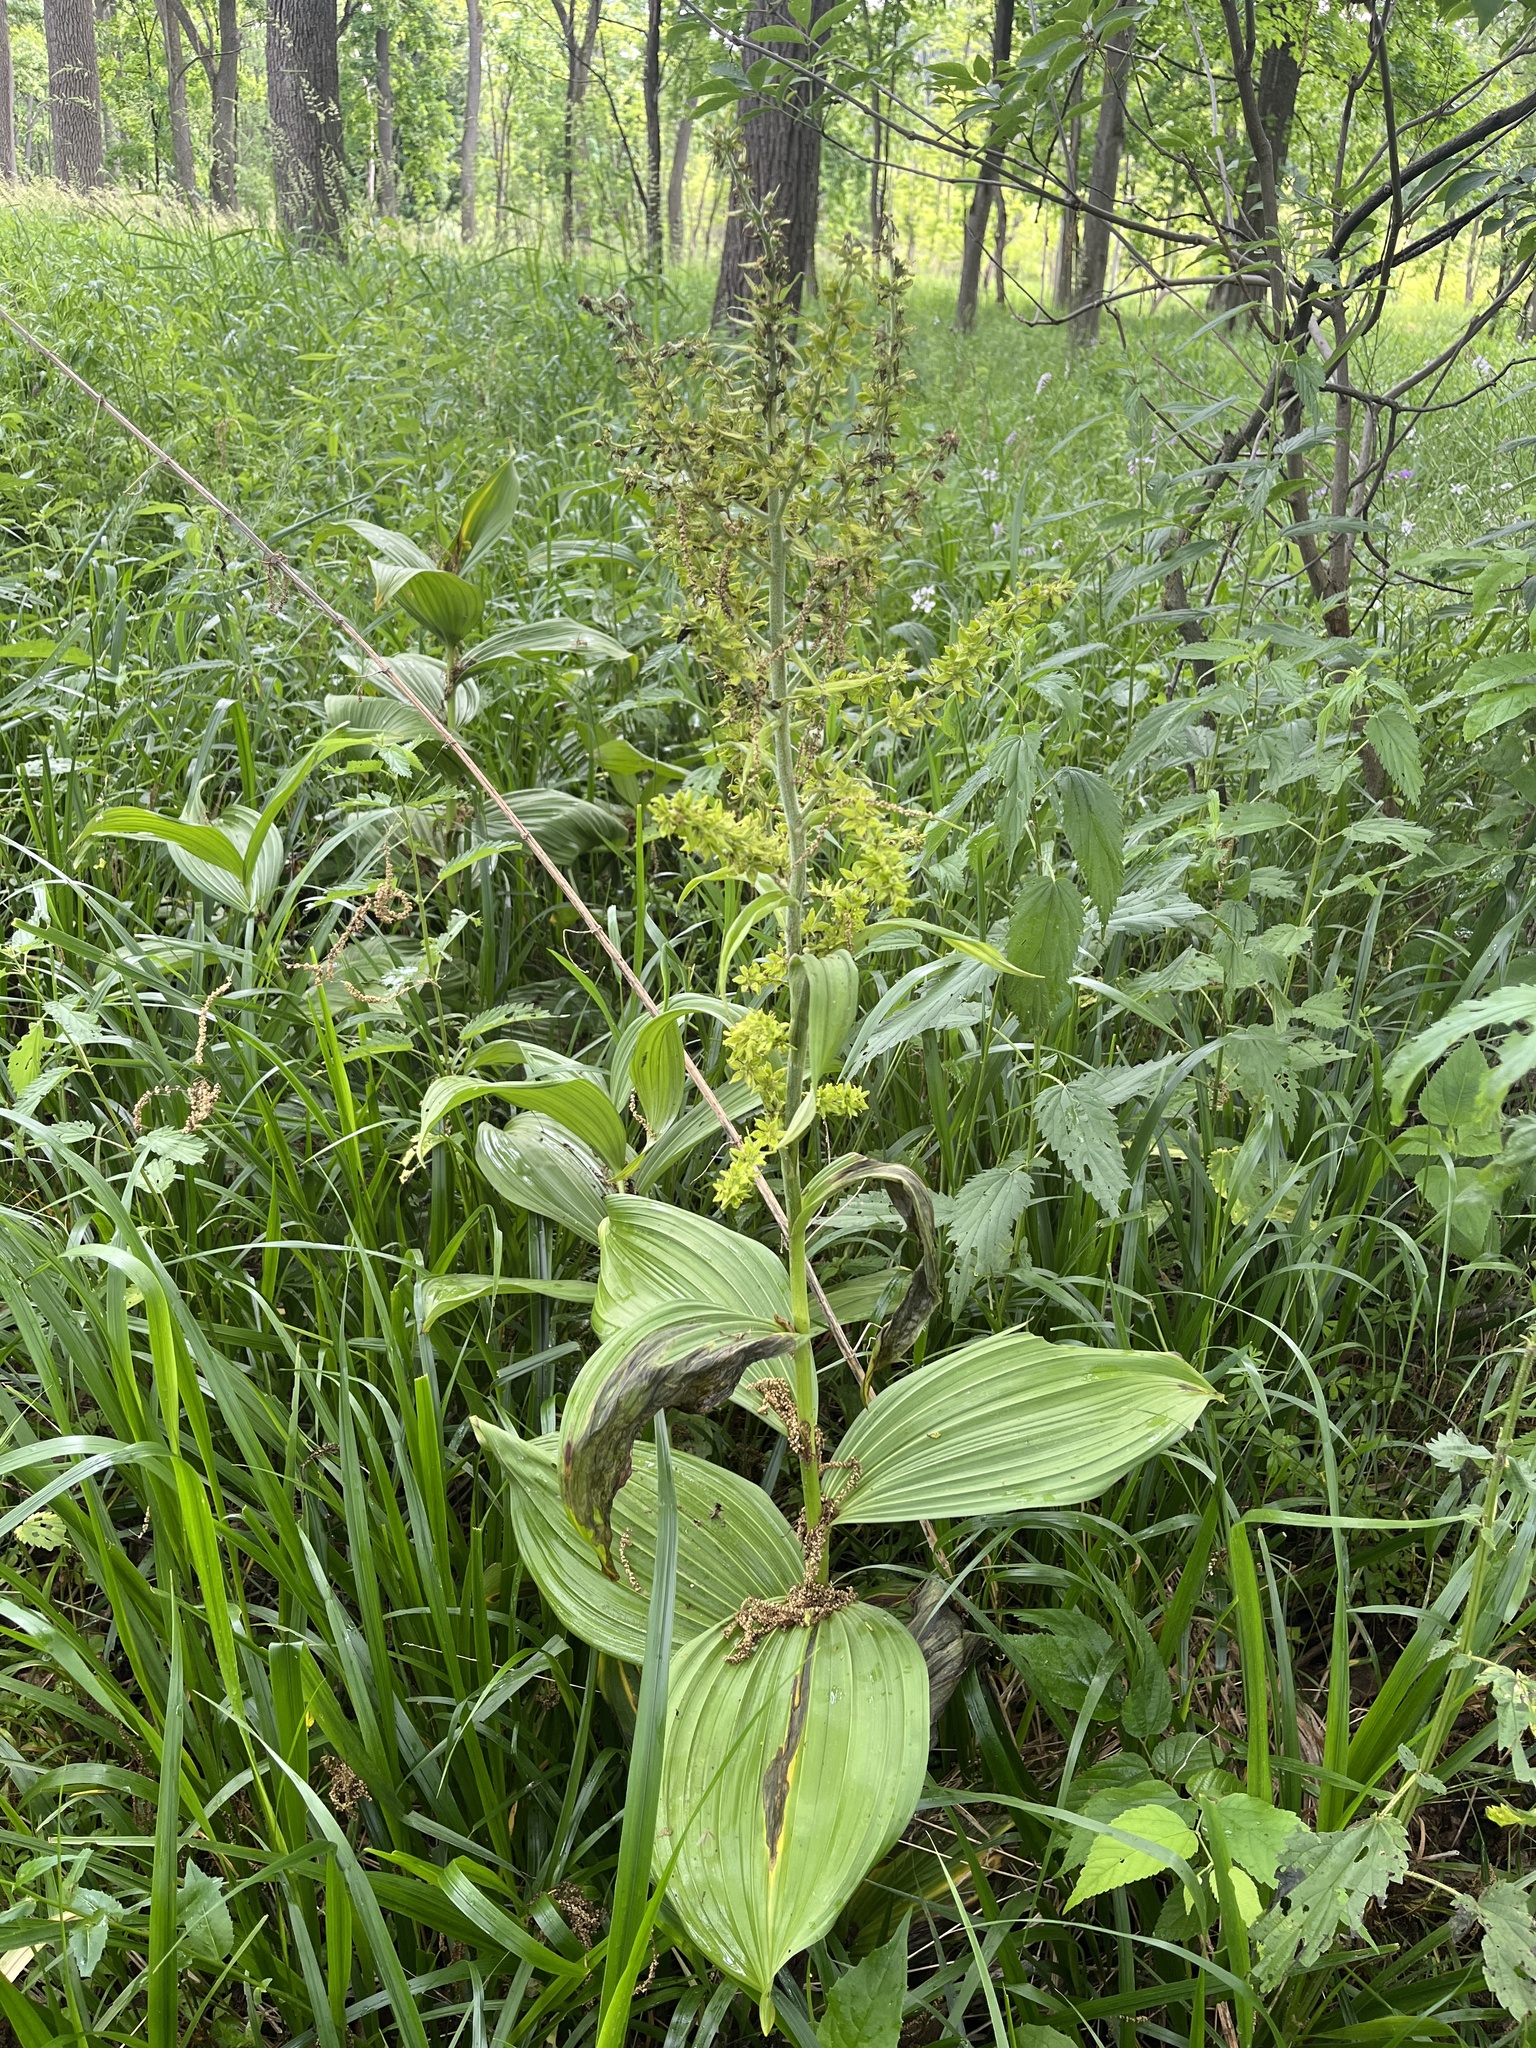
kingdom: Plantae
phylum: Tracheophyta
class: Liliopsida
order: Liliales
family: Melanthiaceae
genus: Veratrum
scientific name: Veratrum viride
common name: American false hellebore
